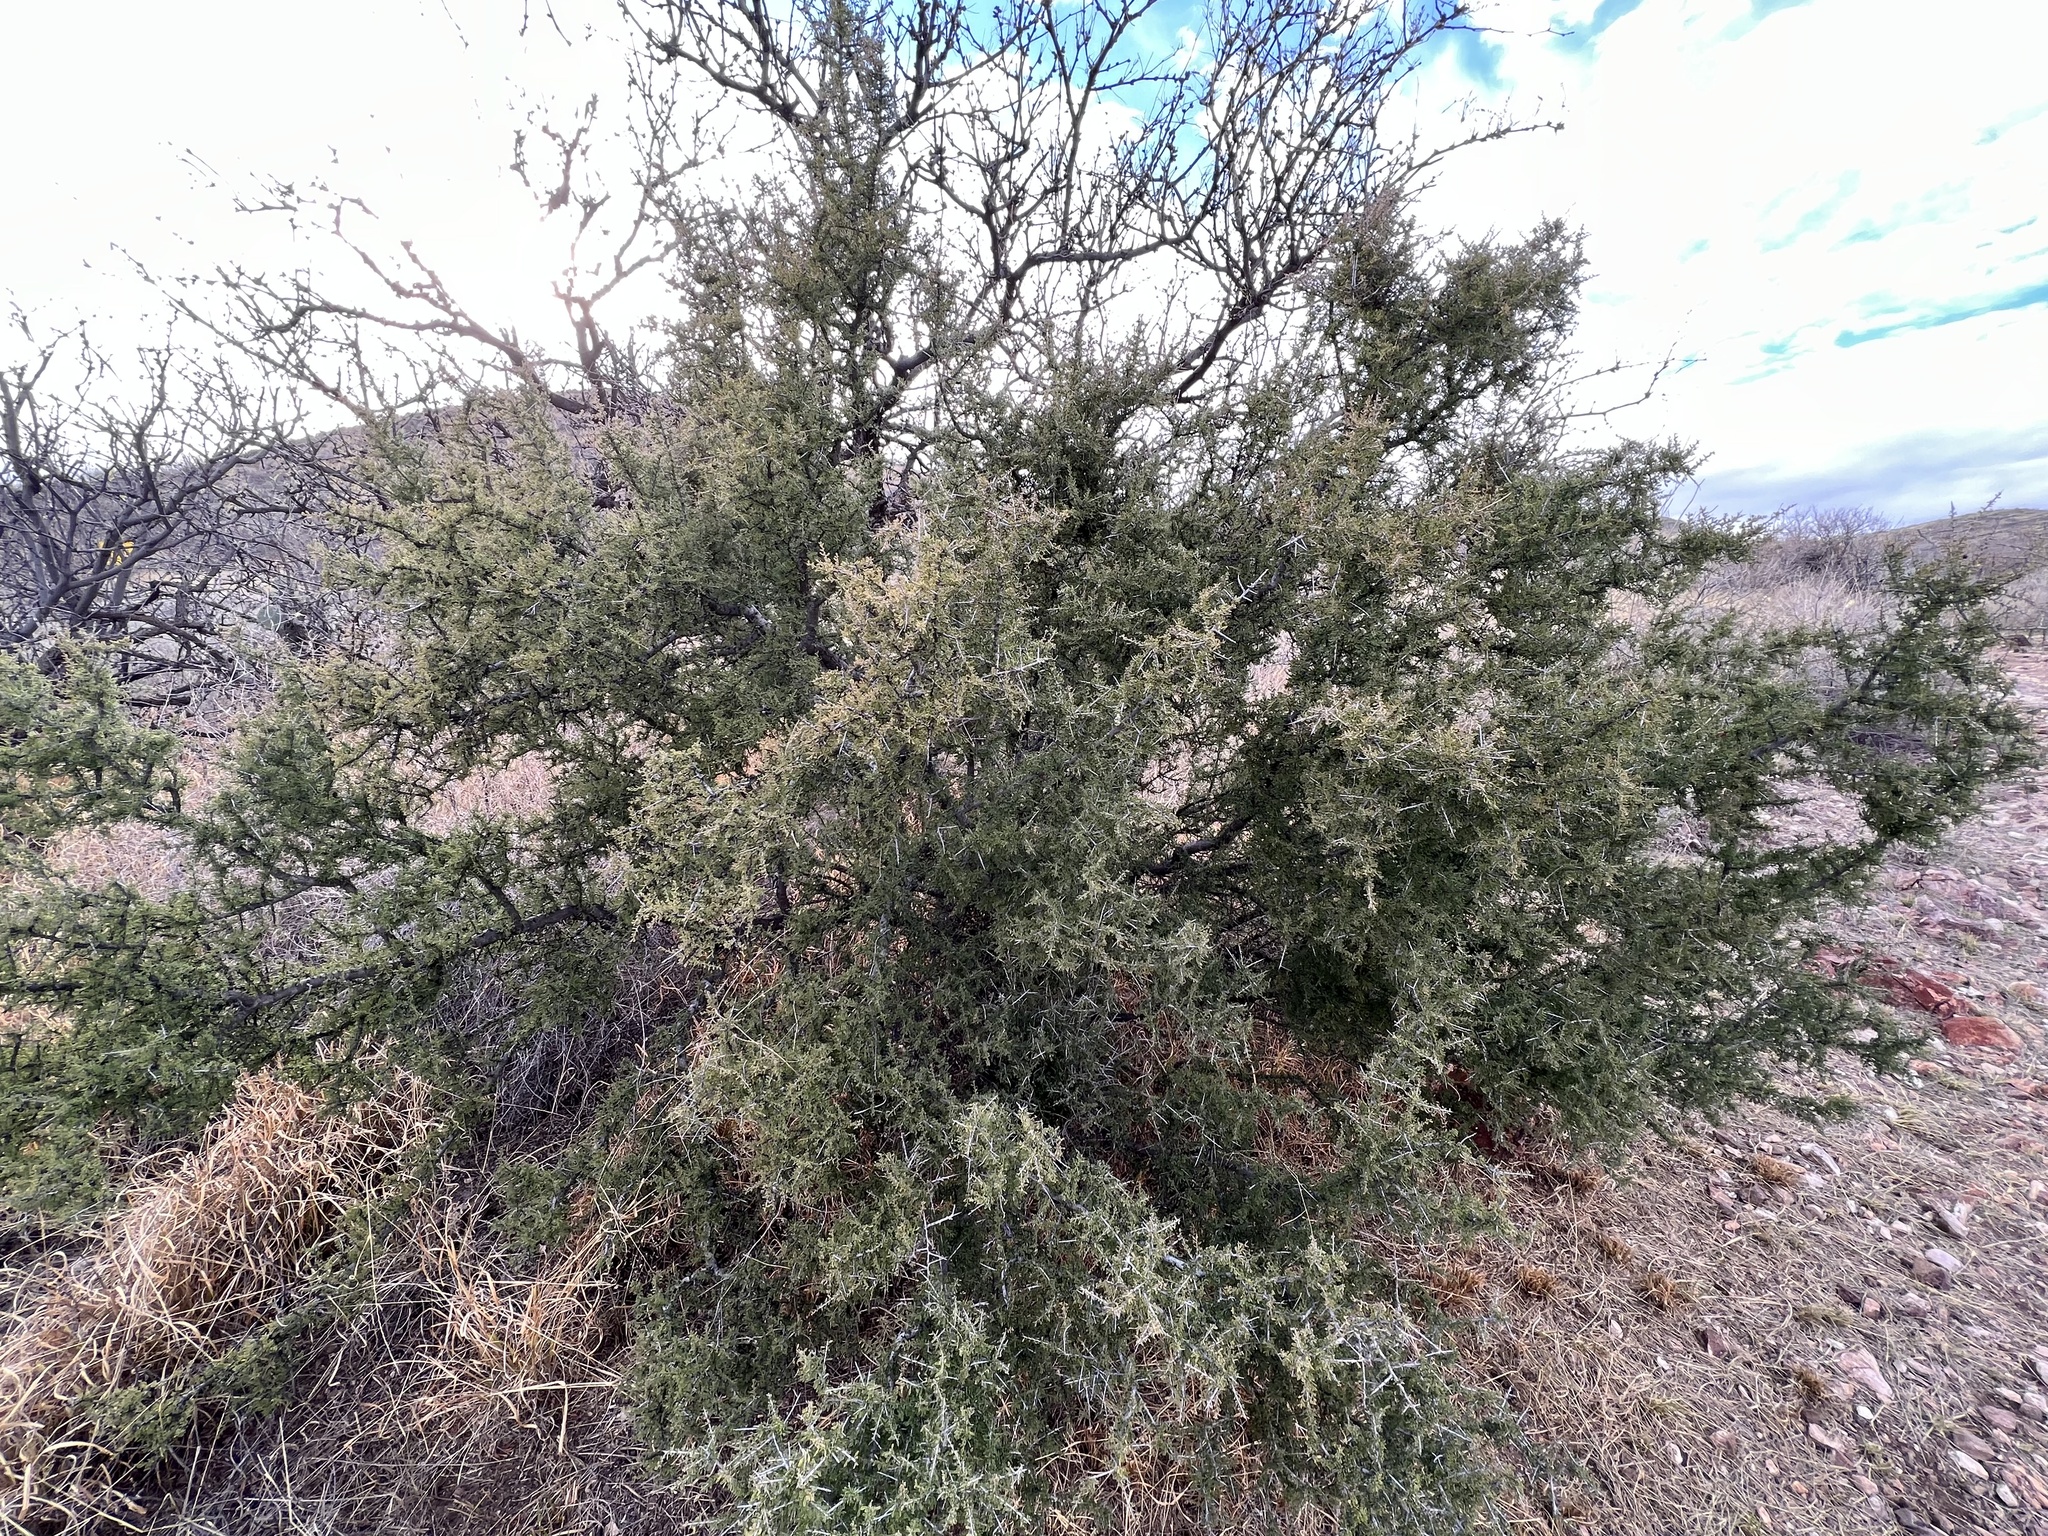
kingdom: Plantae
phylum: Tracheophyta
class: Magnoliopsida
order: Rosales
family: Rhamnaceae
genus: Condalia
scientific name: Condalia warnockii
